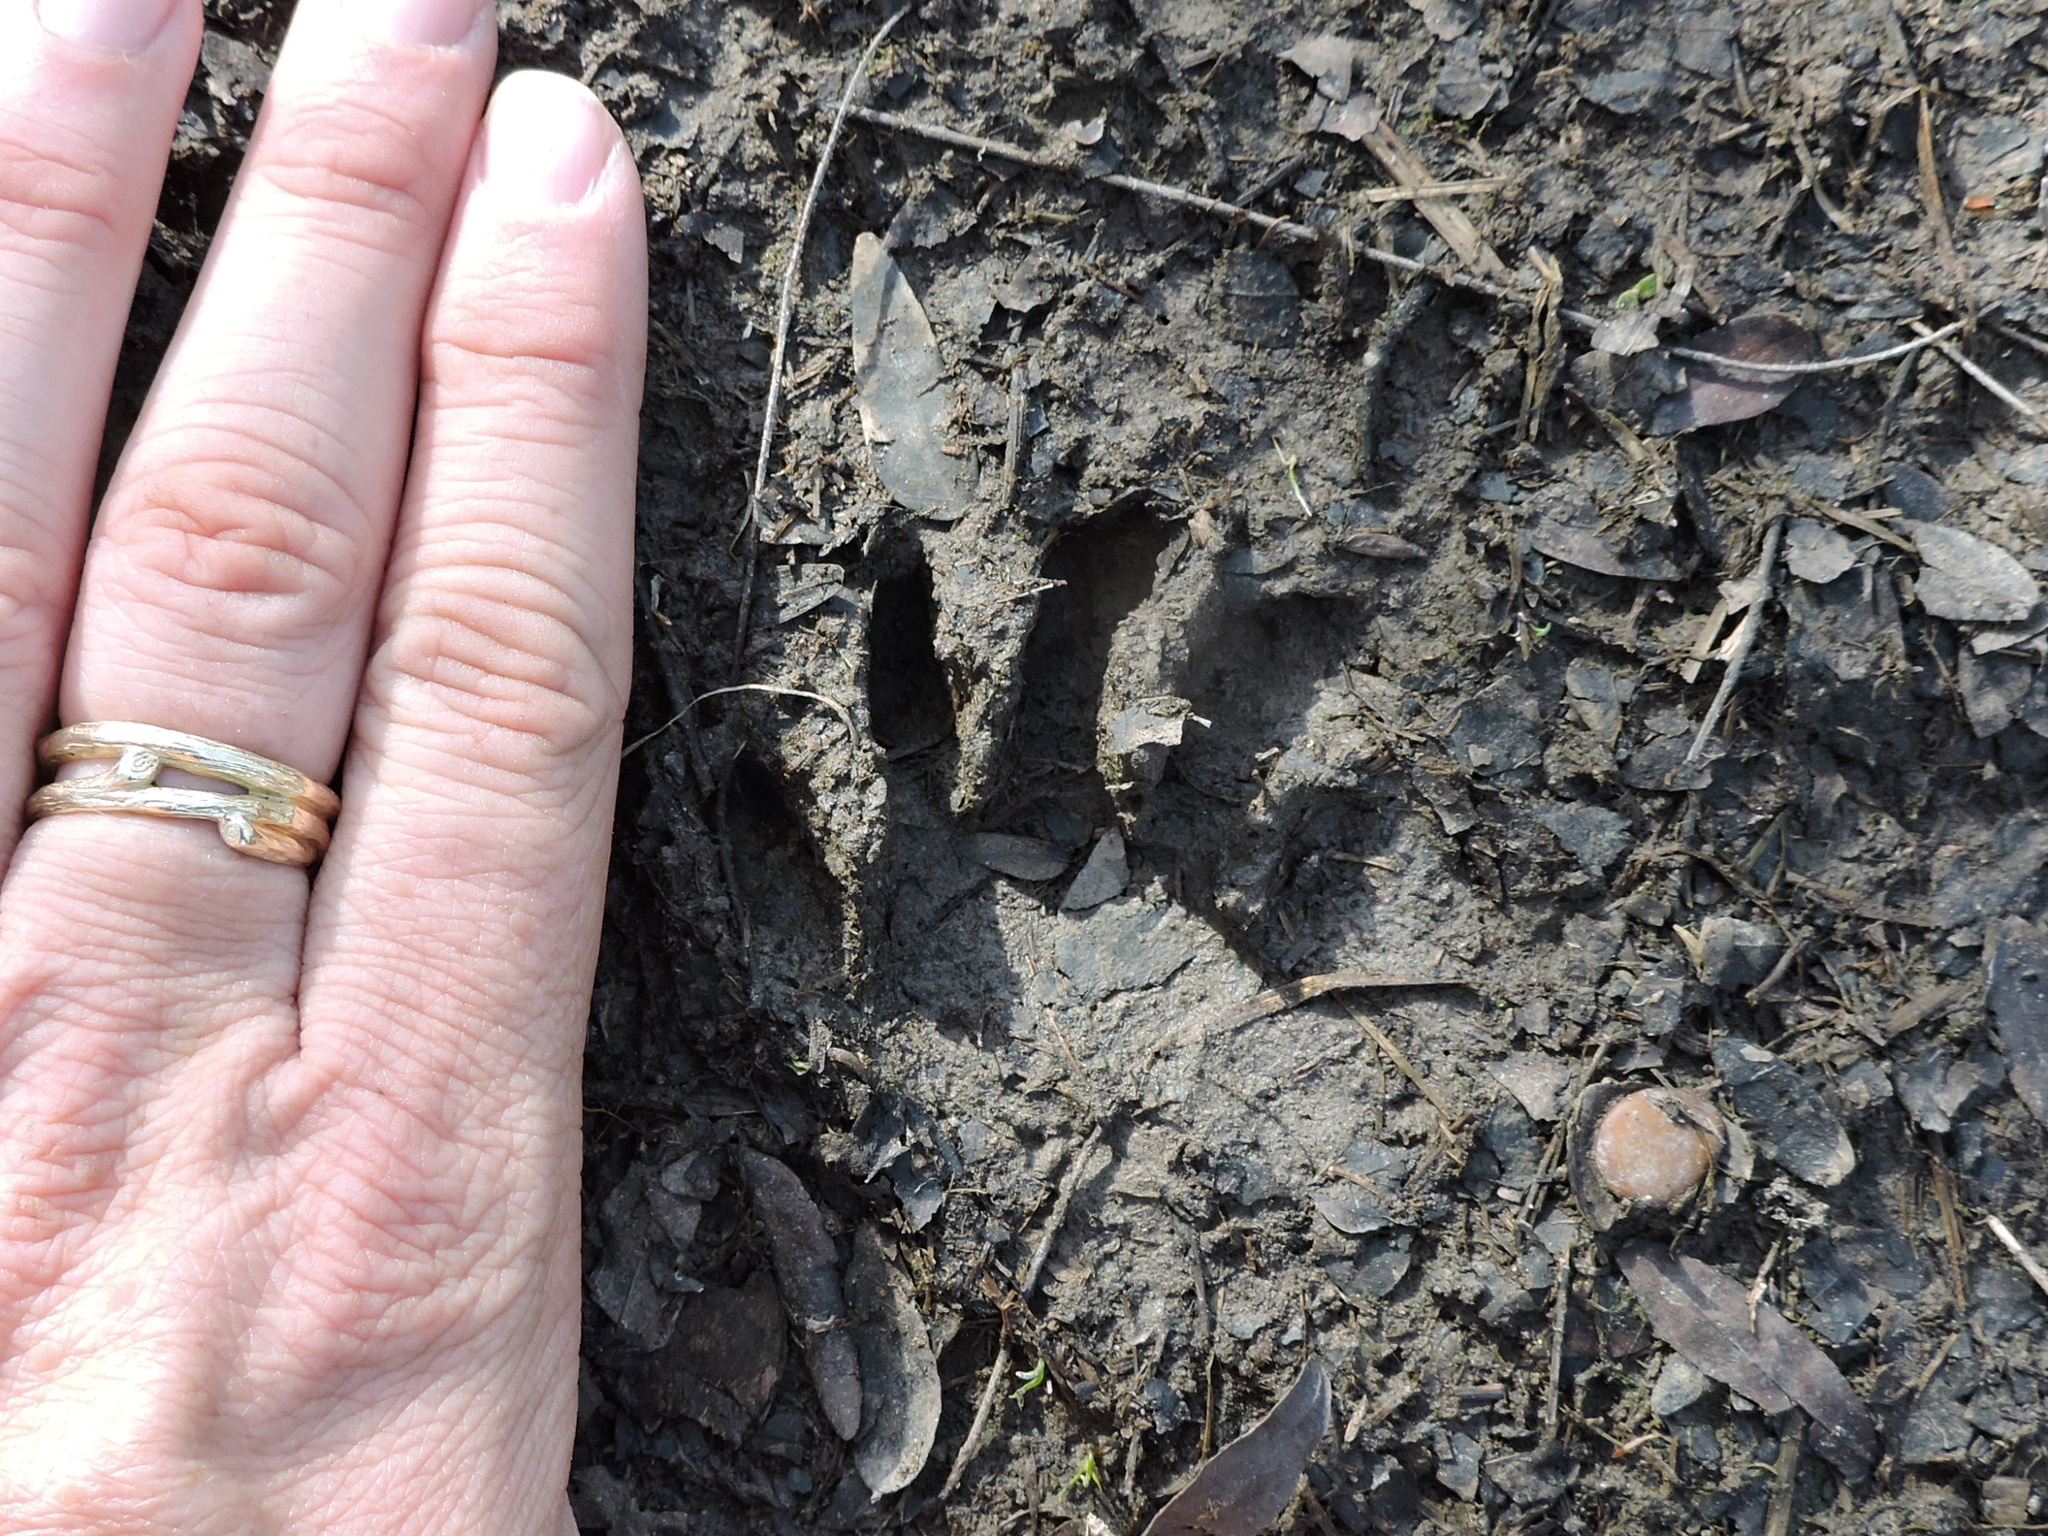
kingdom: Animalia
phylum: Chordata
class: Mammalia
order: Carnivora
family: Procyonidae
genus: Procyon
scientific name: Procyon lotor
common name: Raccoon
